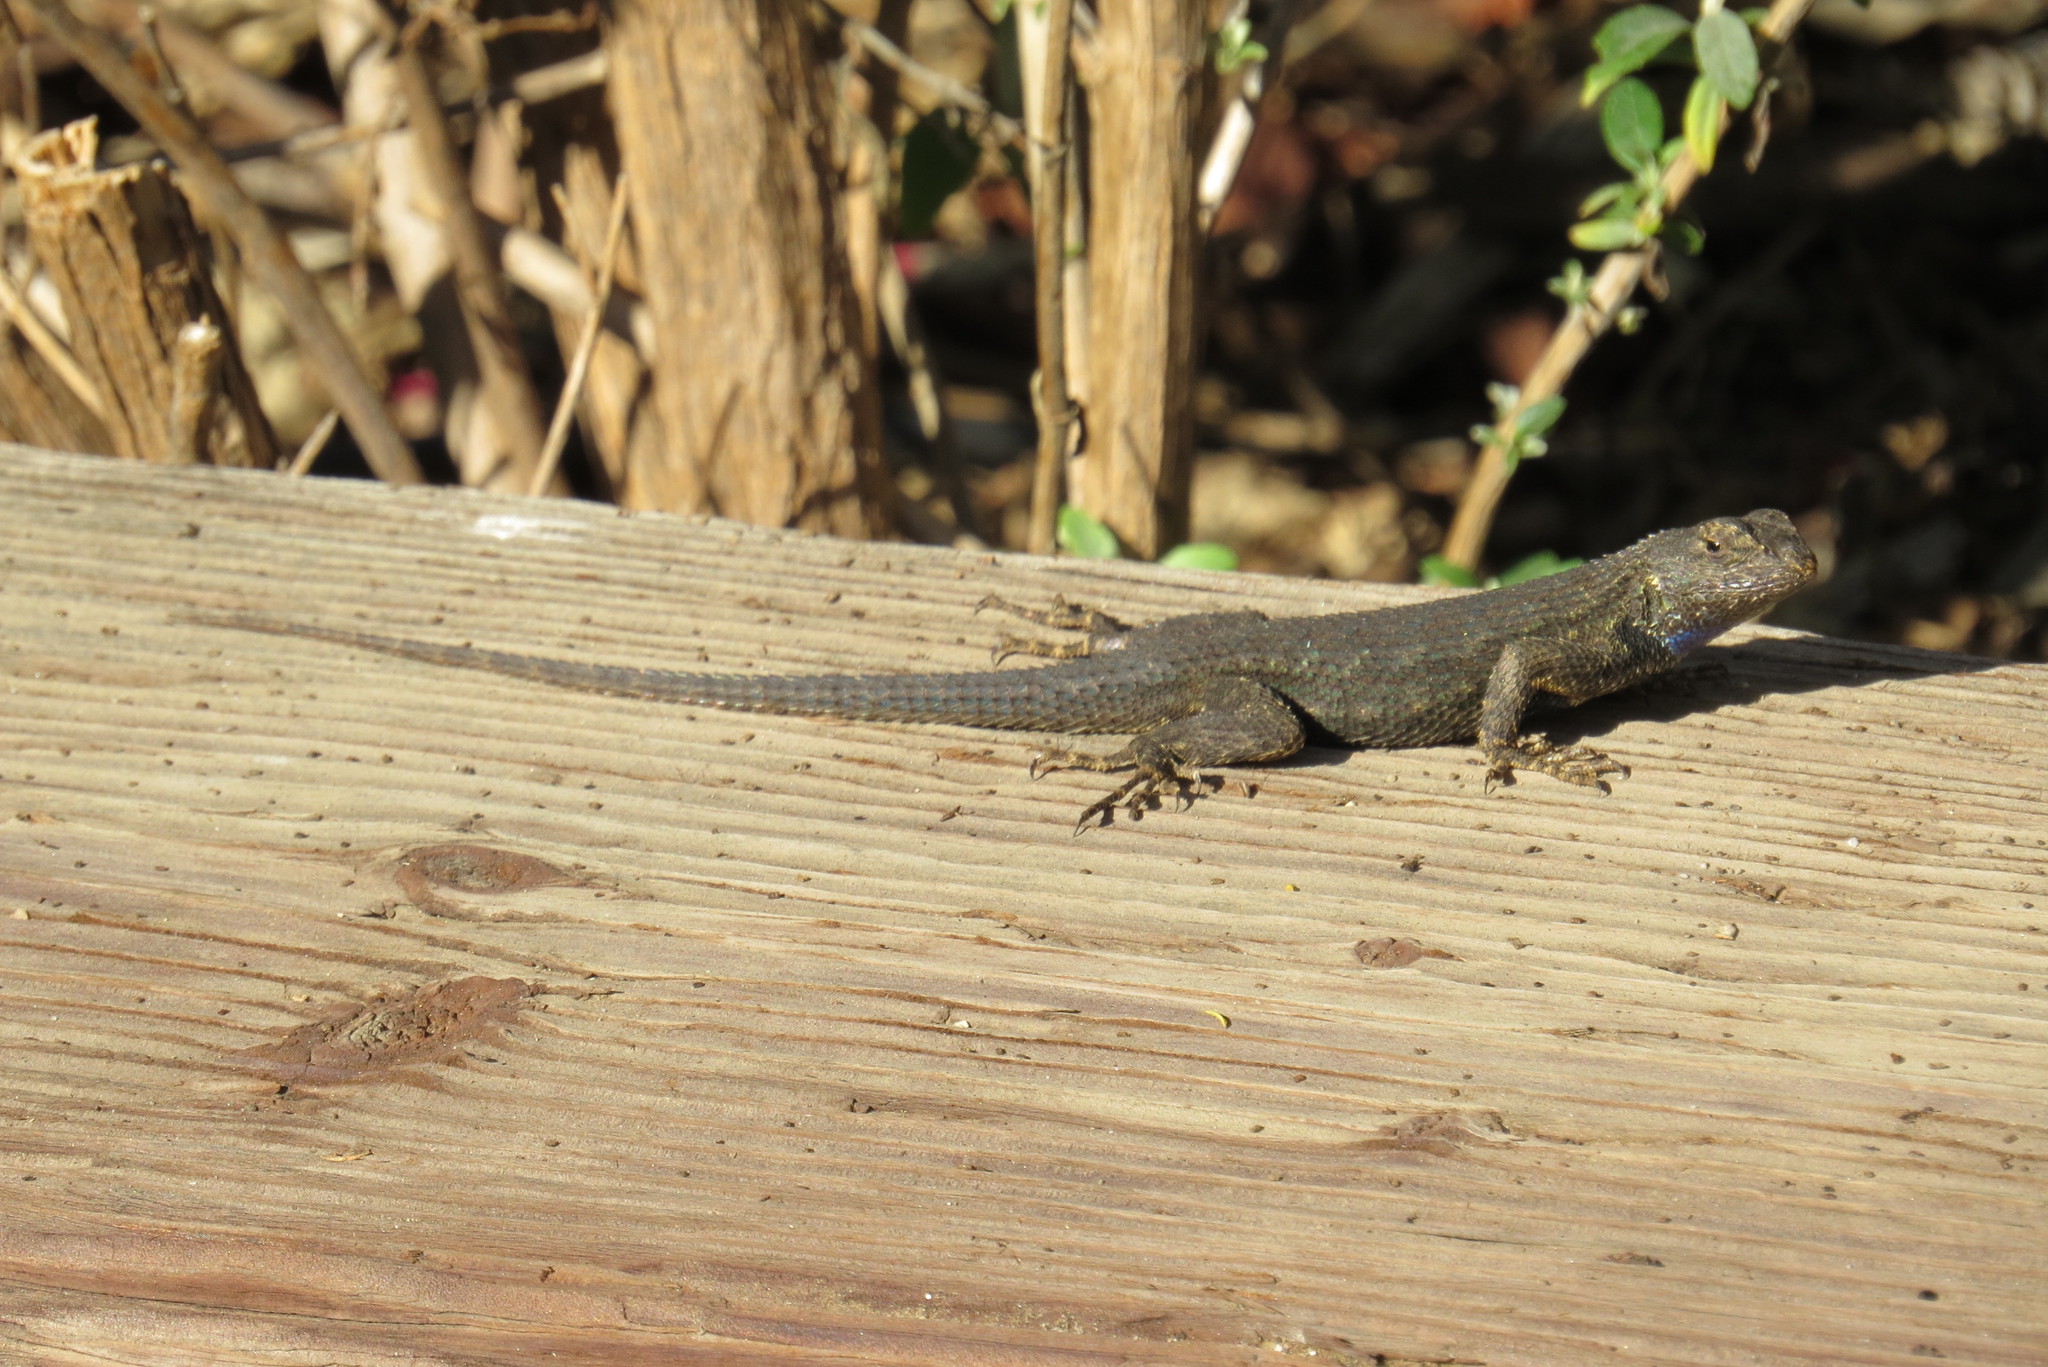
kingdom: Animalia
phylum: Chordata
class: Squamata
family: Phrynosomatidae
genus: Sceloporus
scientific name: Sceloporus occidentalis
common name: Western fence lizard
